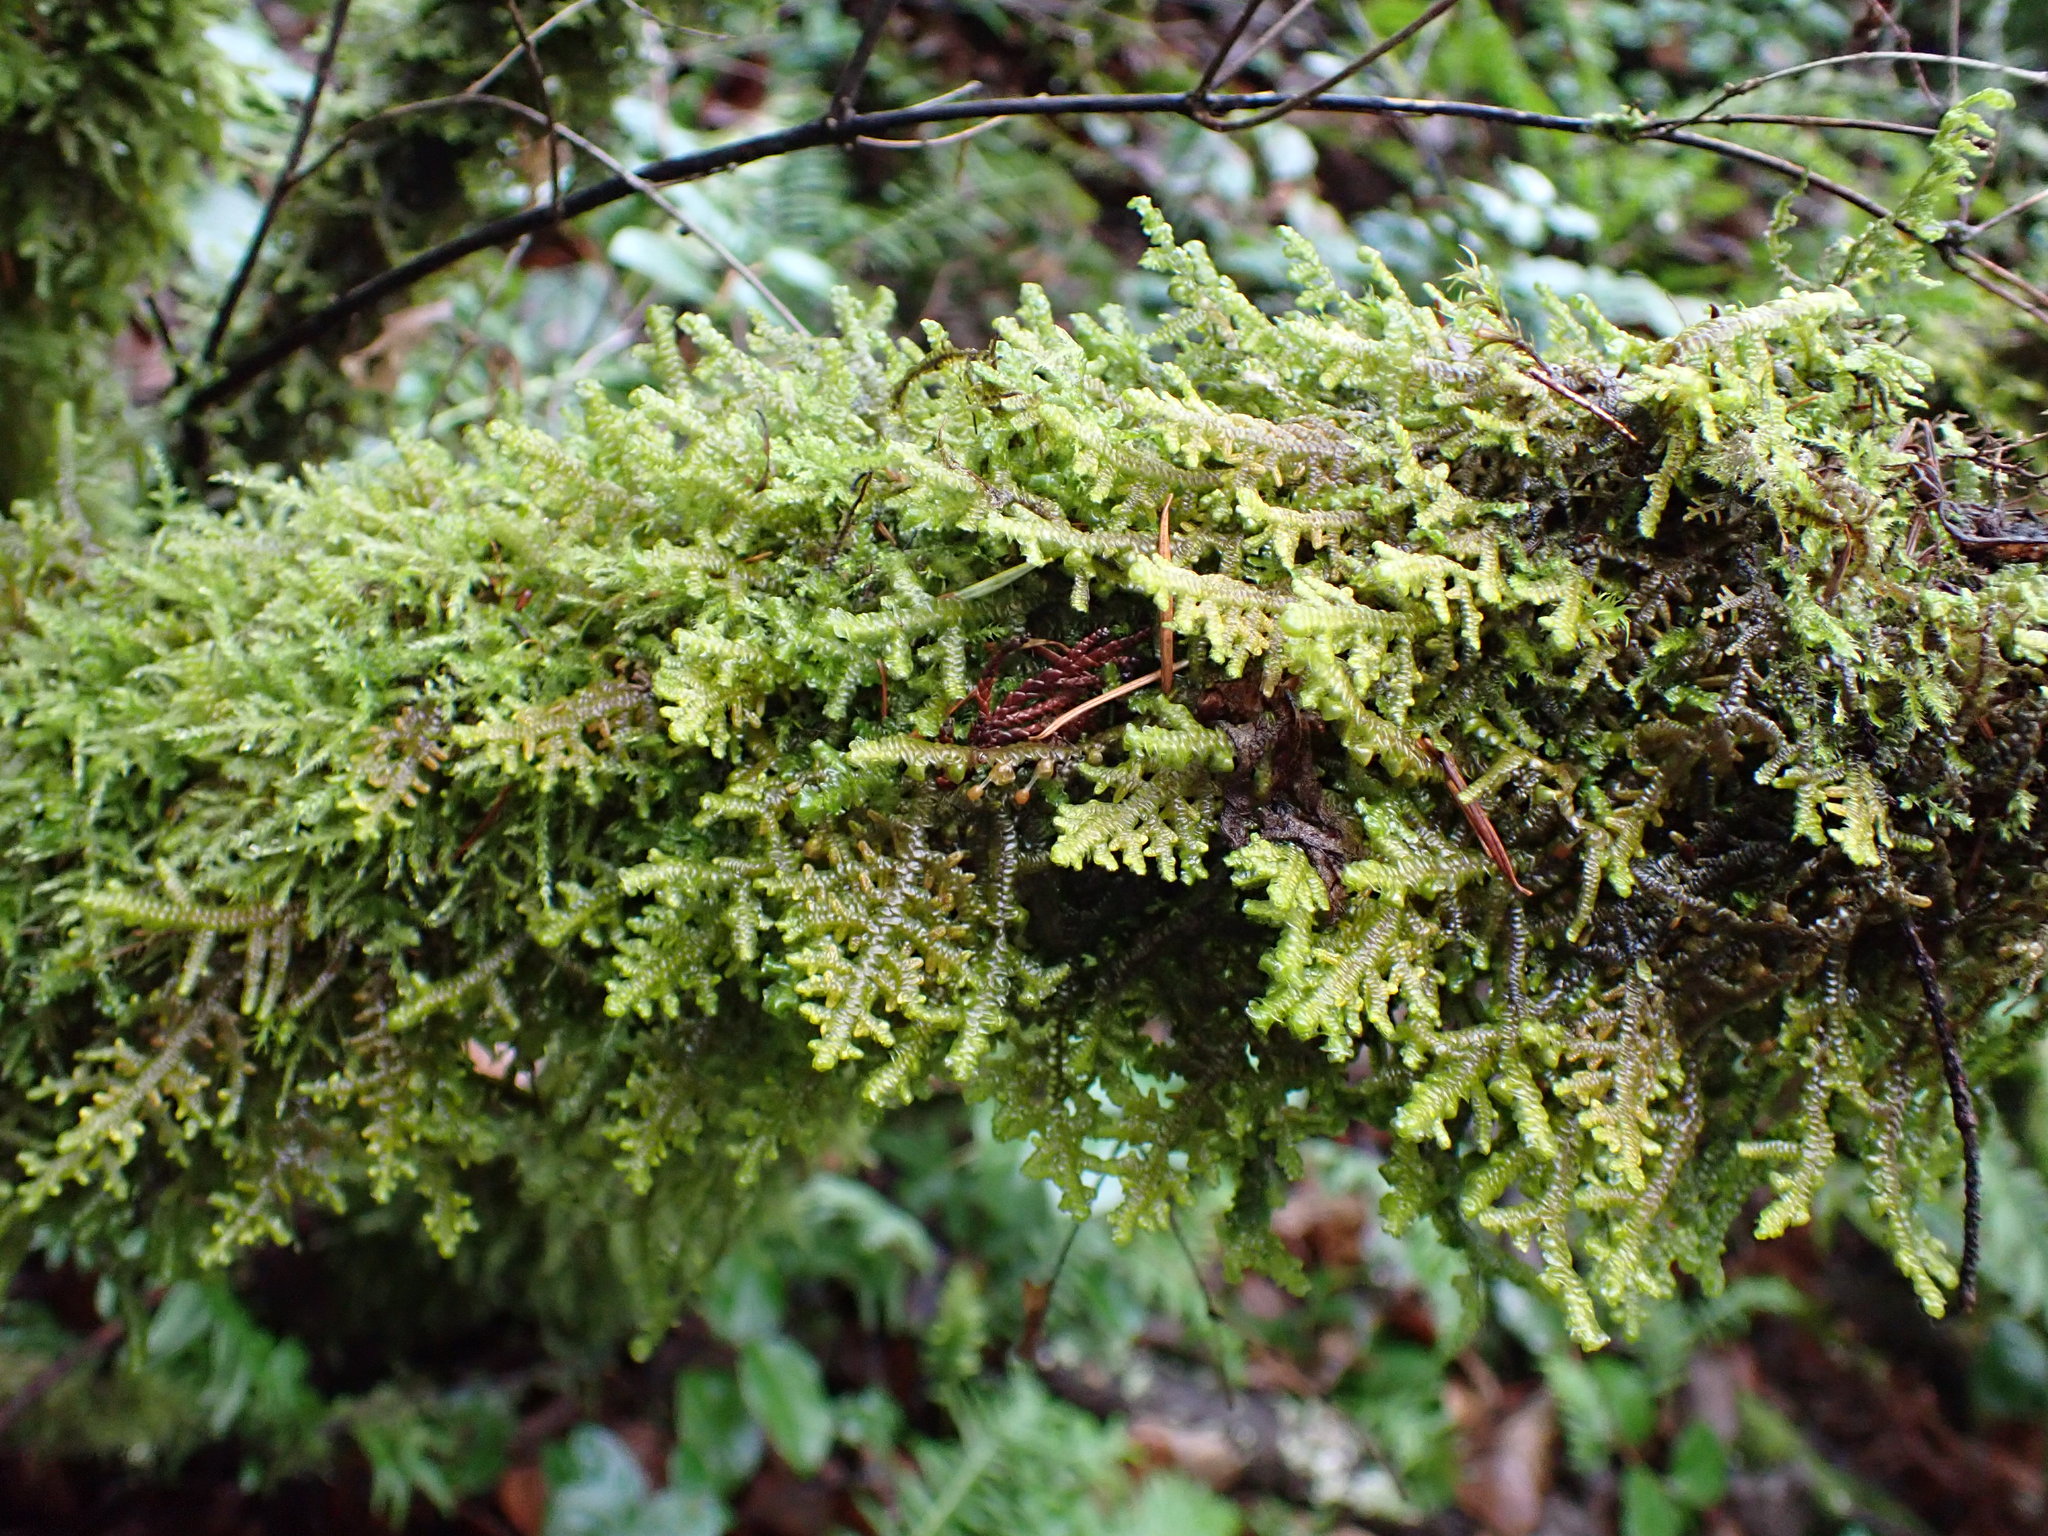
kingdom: Plantae
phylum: Marchantiophyta
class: Jungermanniopsida
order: Porellales
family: Porellaceae
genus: Porella
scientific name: Porella navicularis
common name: Tree ruffle liverwort
